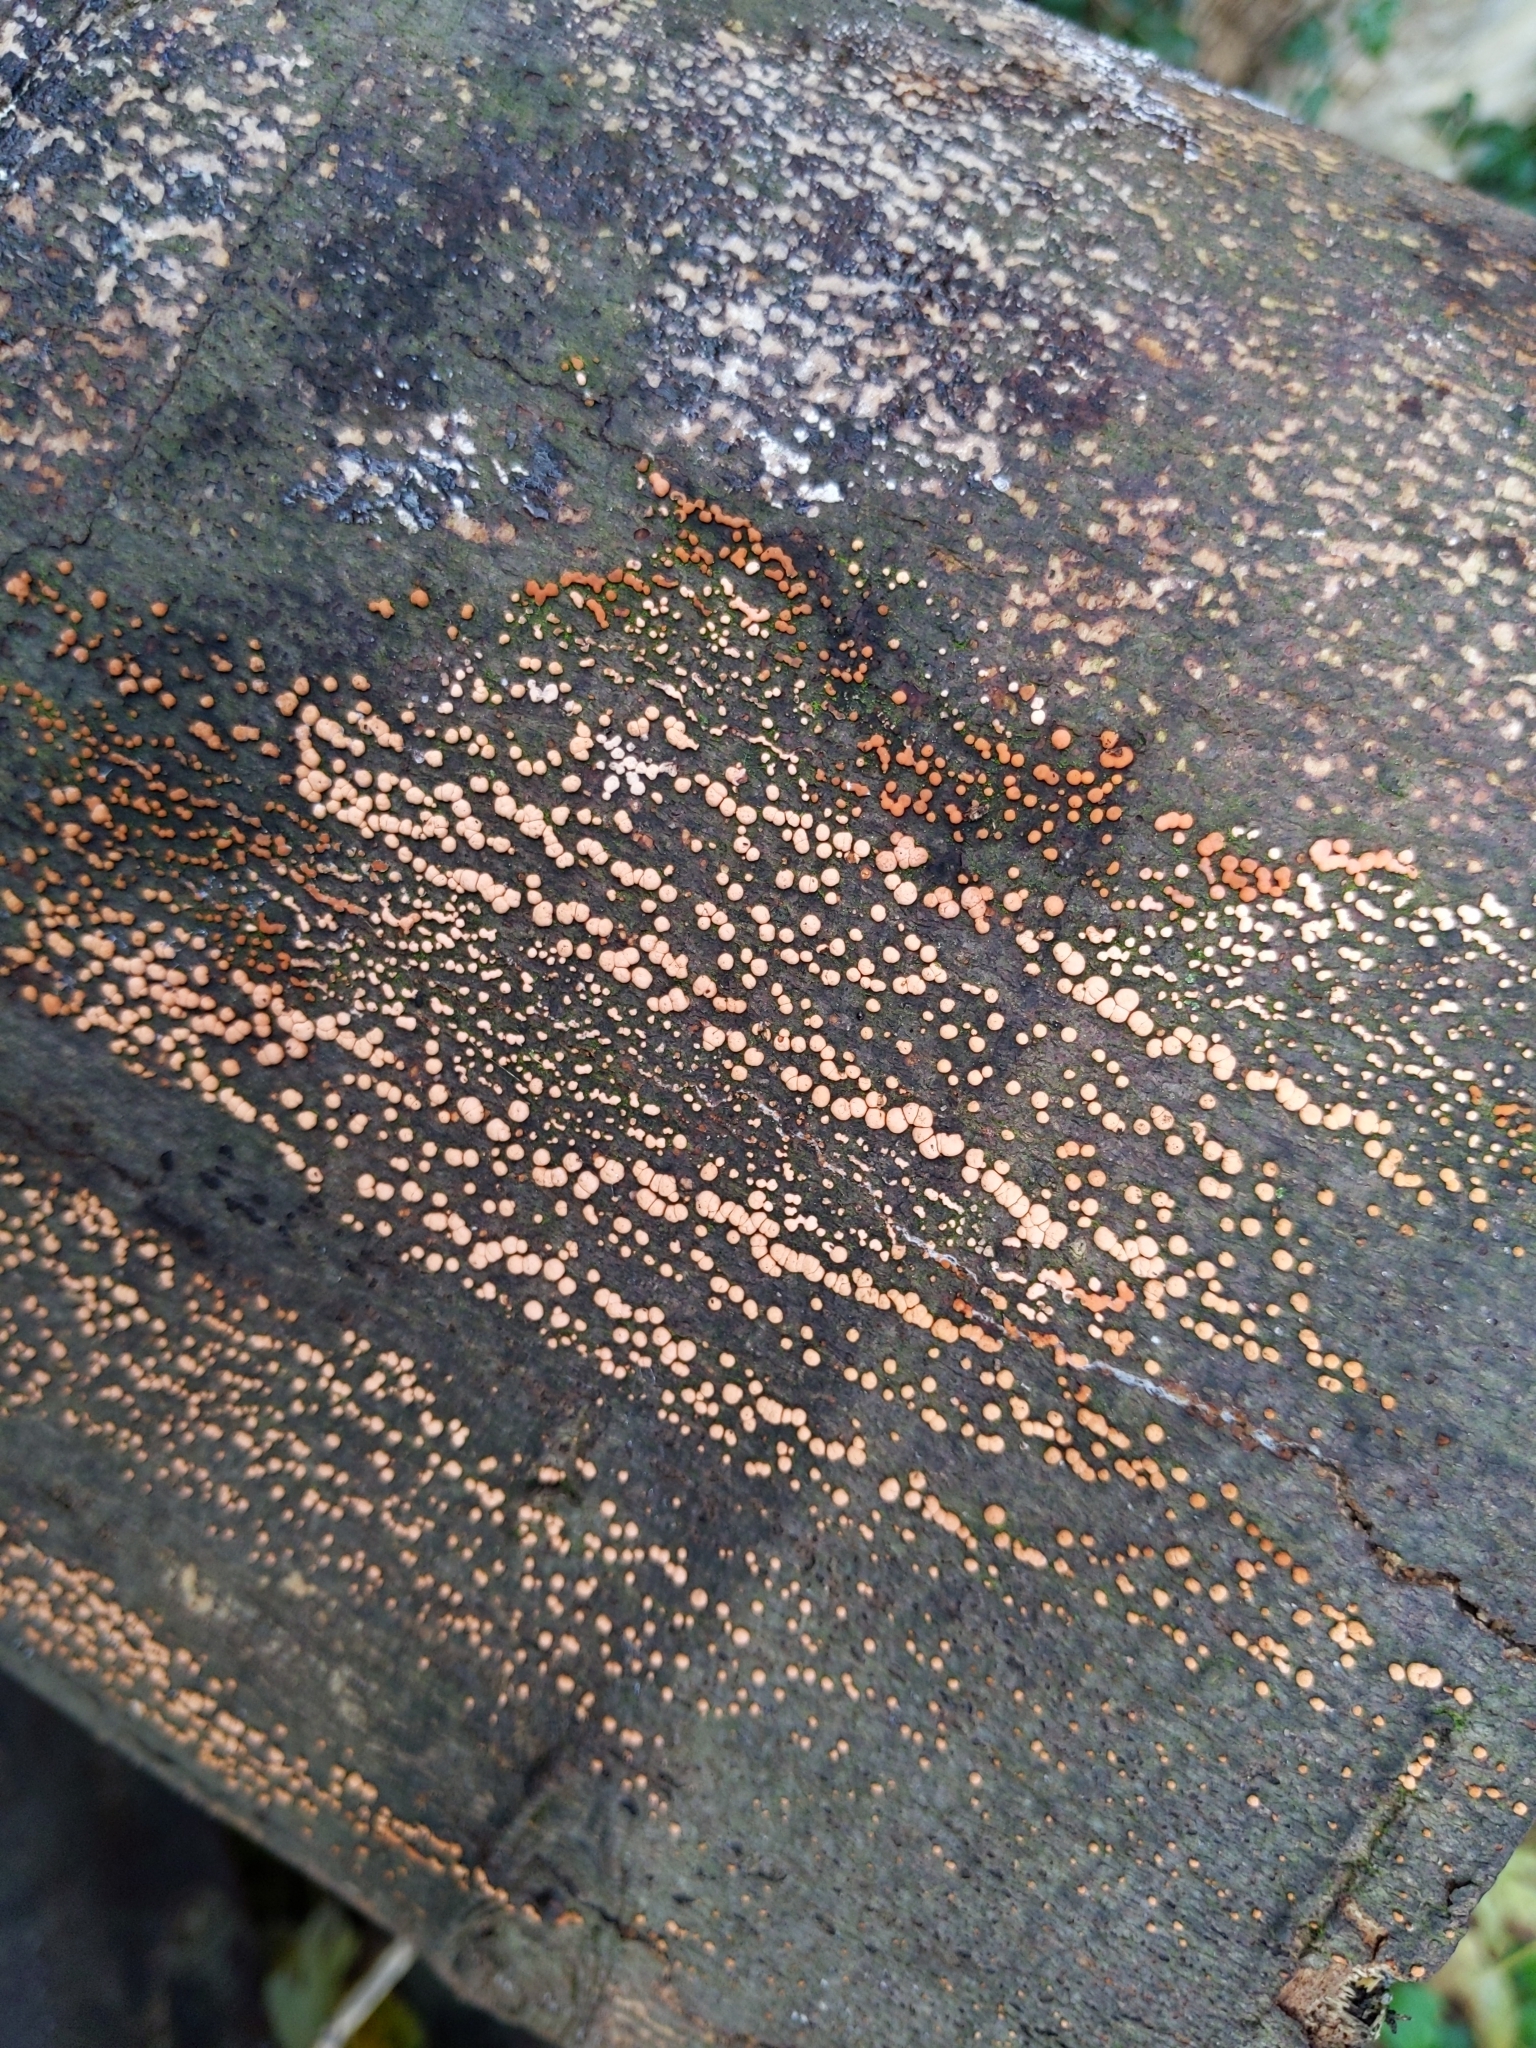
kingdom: Fungi
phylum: Ascomycota
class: Sordariomycetes
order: Hypocreales
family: Nectriaceae
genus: Nectria
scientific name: Nectria cinnabarina
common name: Coral spot
